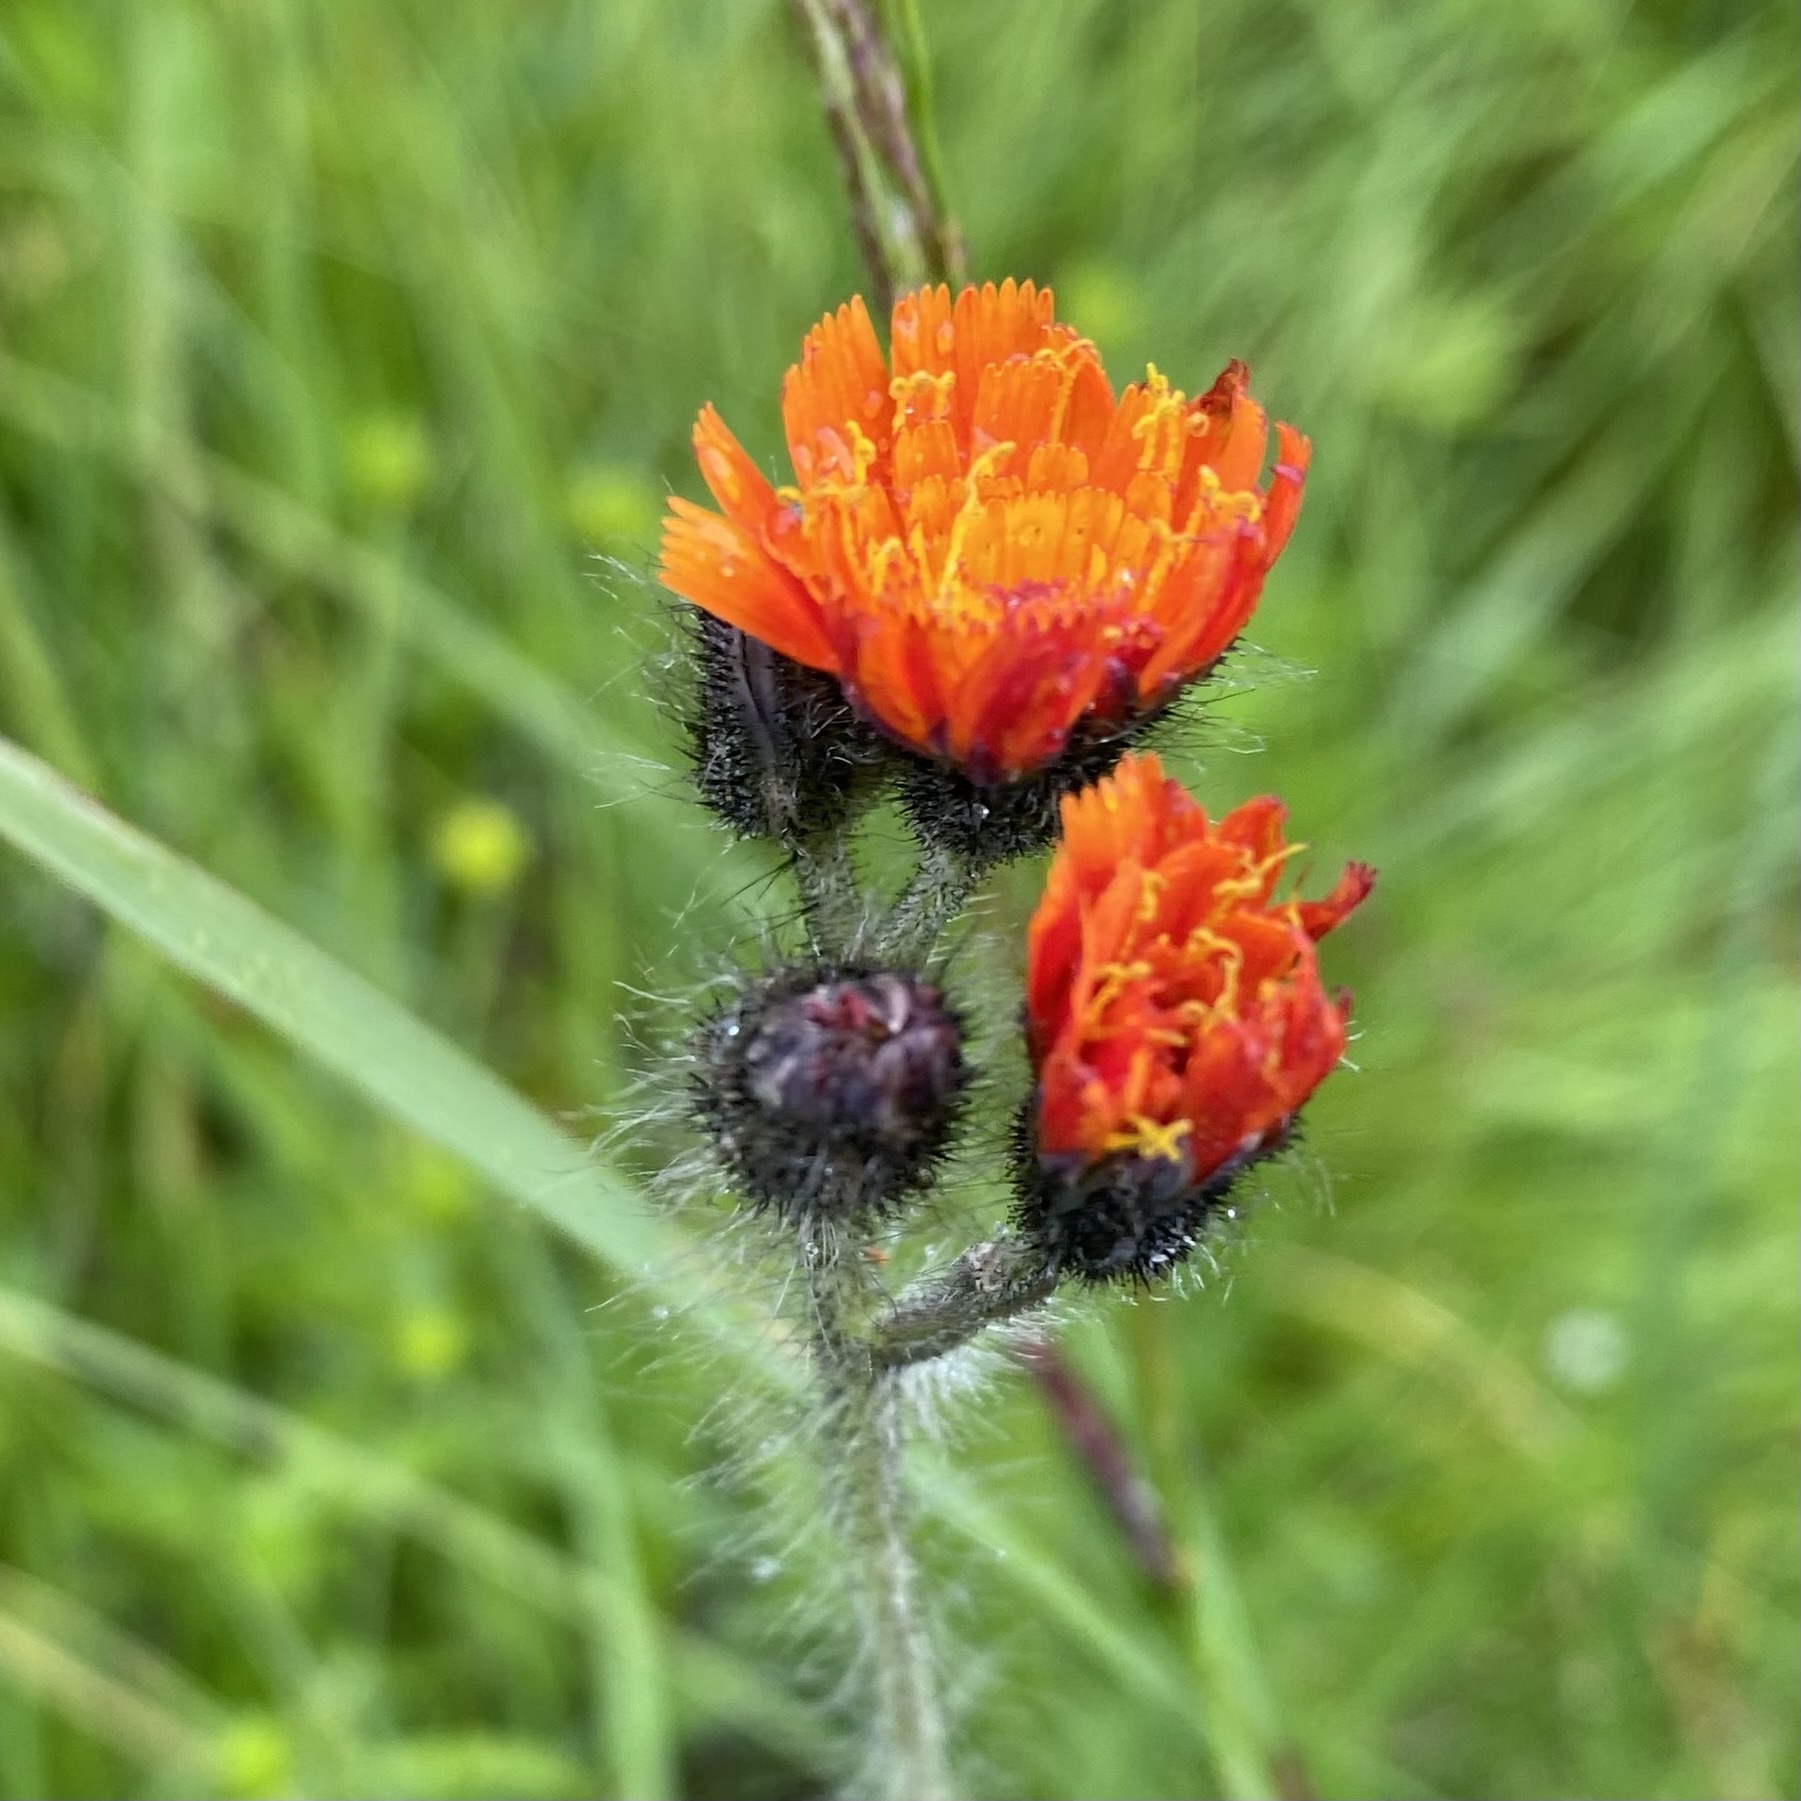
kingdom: Plantae
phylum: Tracheophyta
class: Magnoliopsida
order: Asterales
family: Asteraceae
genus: Pilosella
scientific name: Pilosella aurantiaca
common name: Fox-and-cubs
